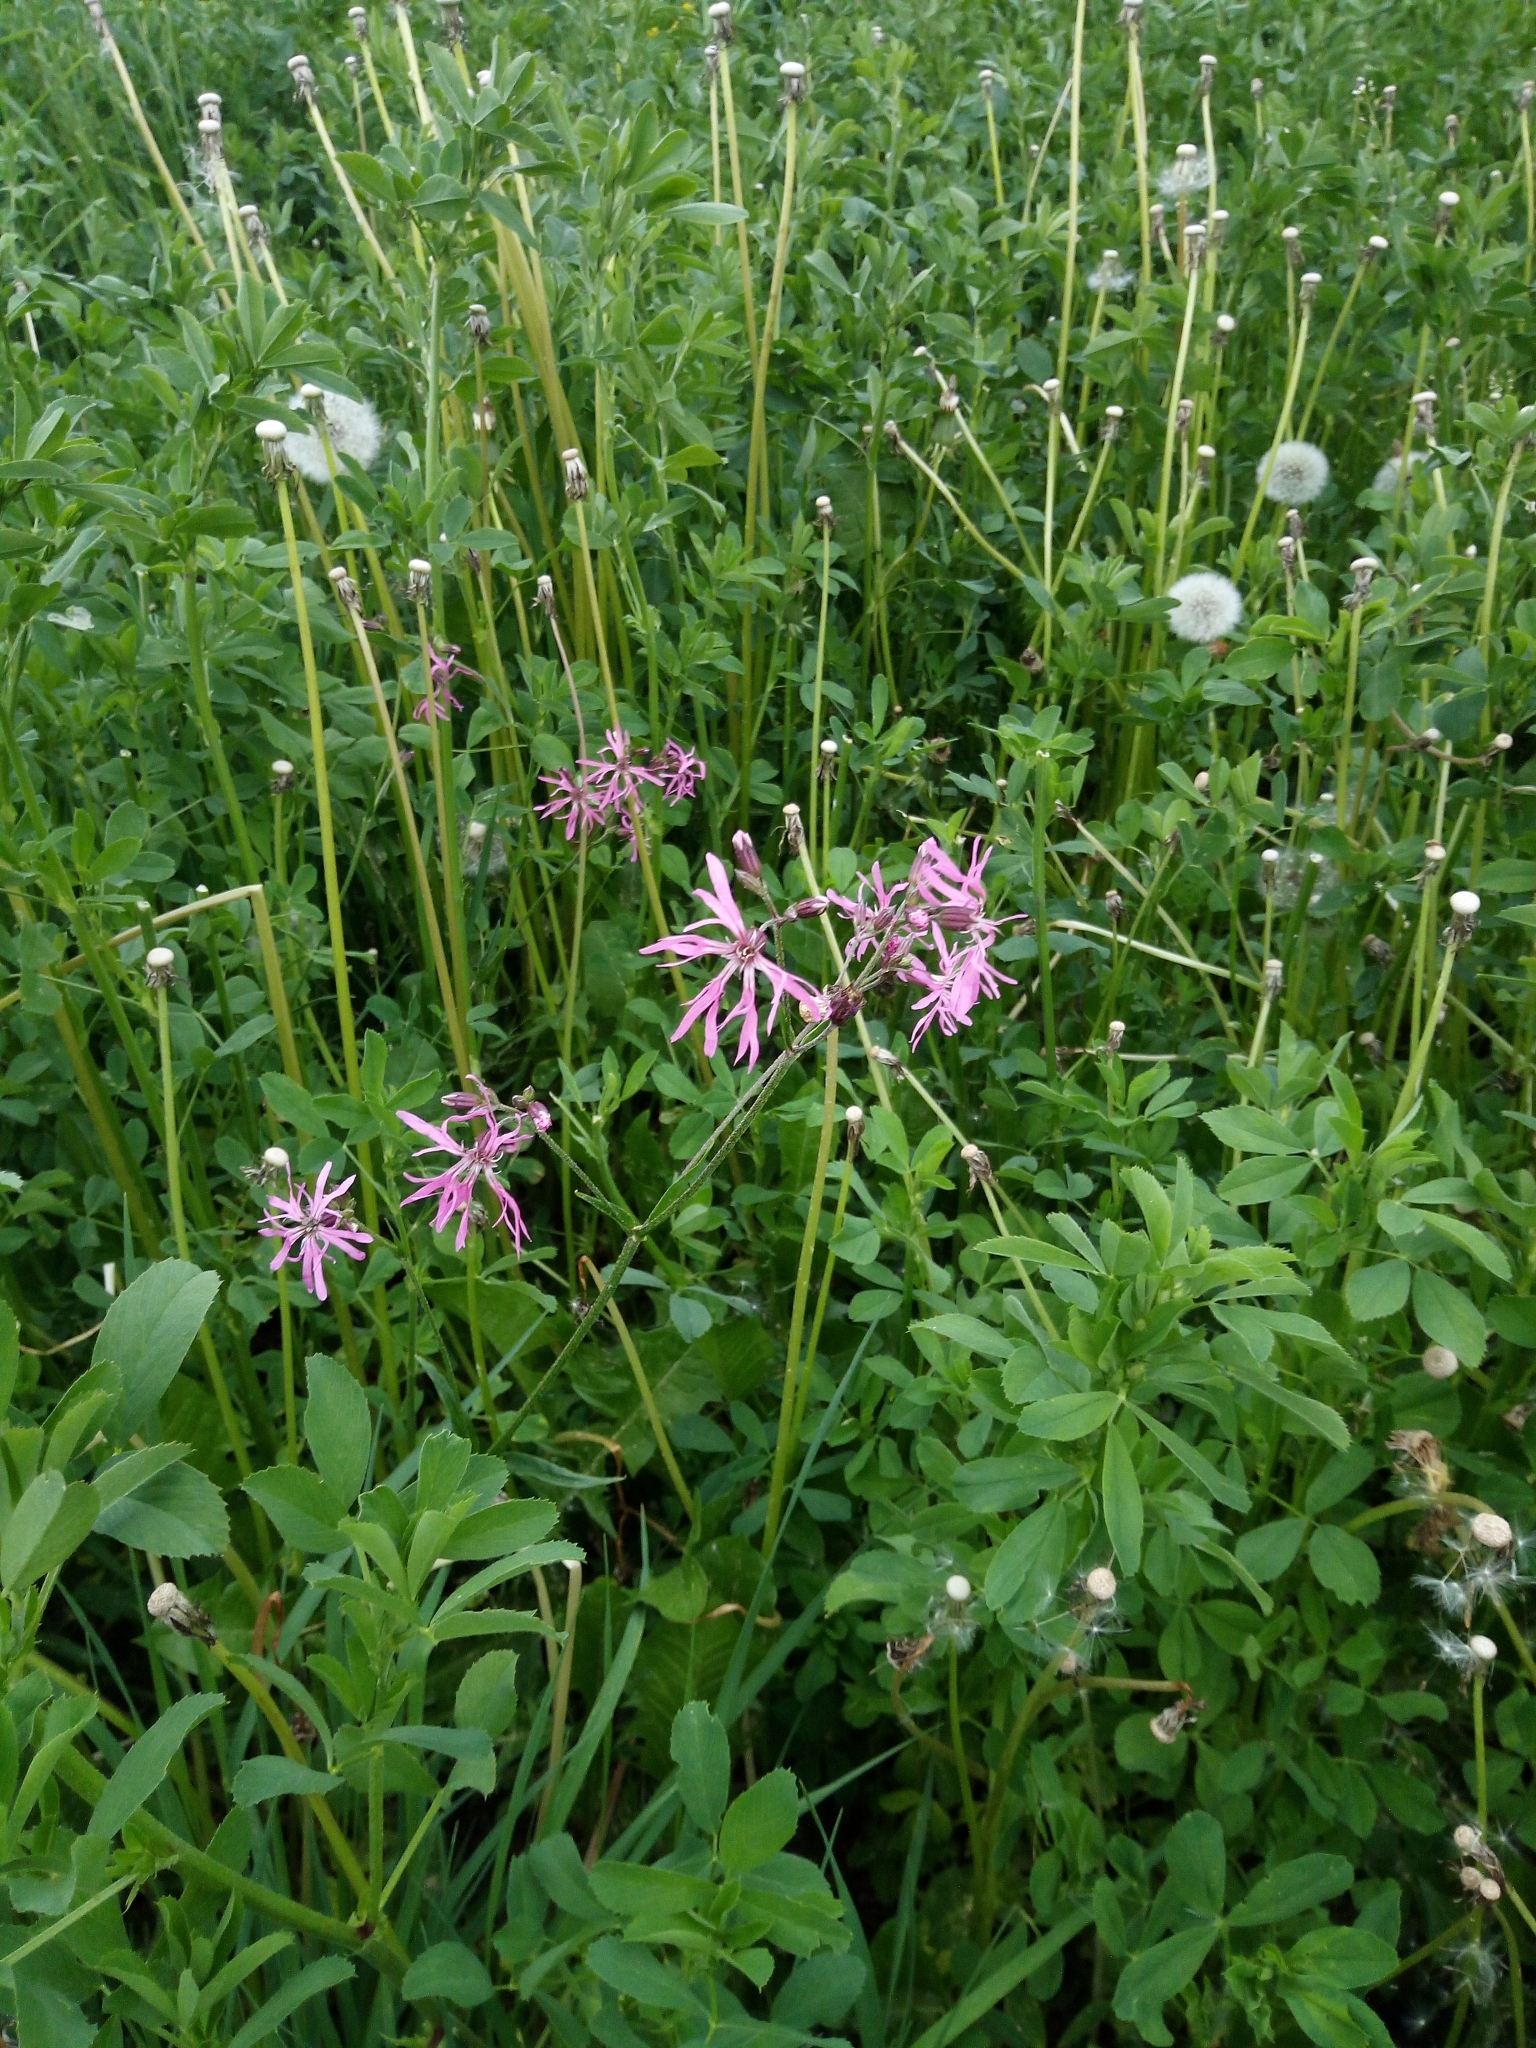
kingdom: Plantae
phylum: Tracheophyta
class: Magnoliopsida
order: Caryophyllales
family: Caryophyllaceae
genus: Silene
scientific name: Silene flos-cuculi
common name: Ragged-robin
